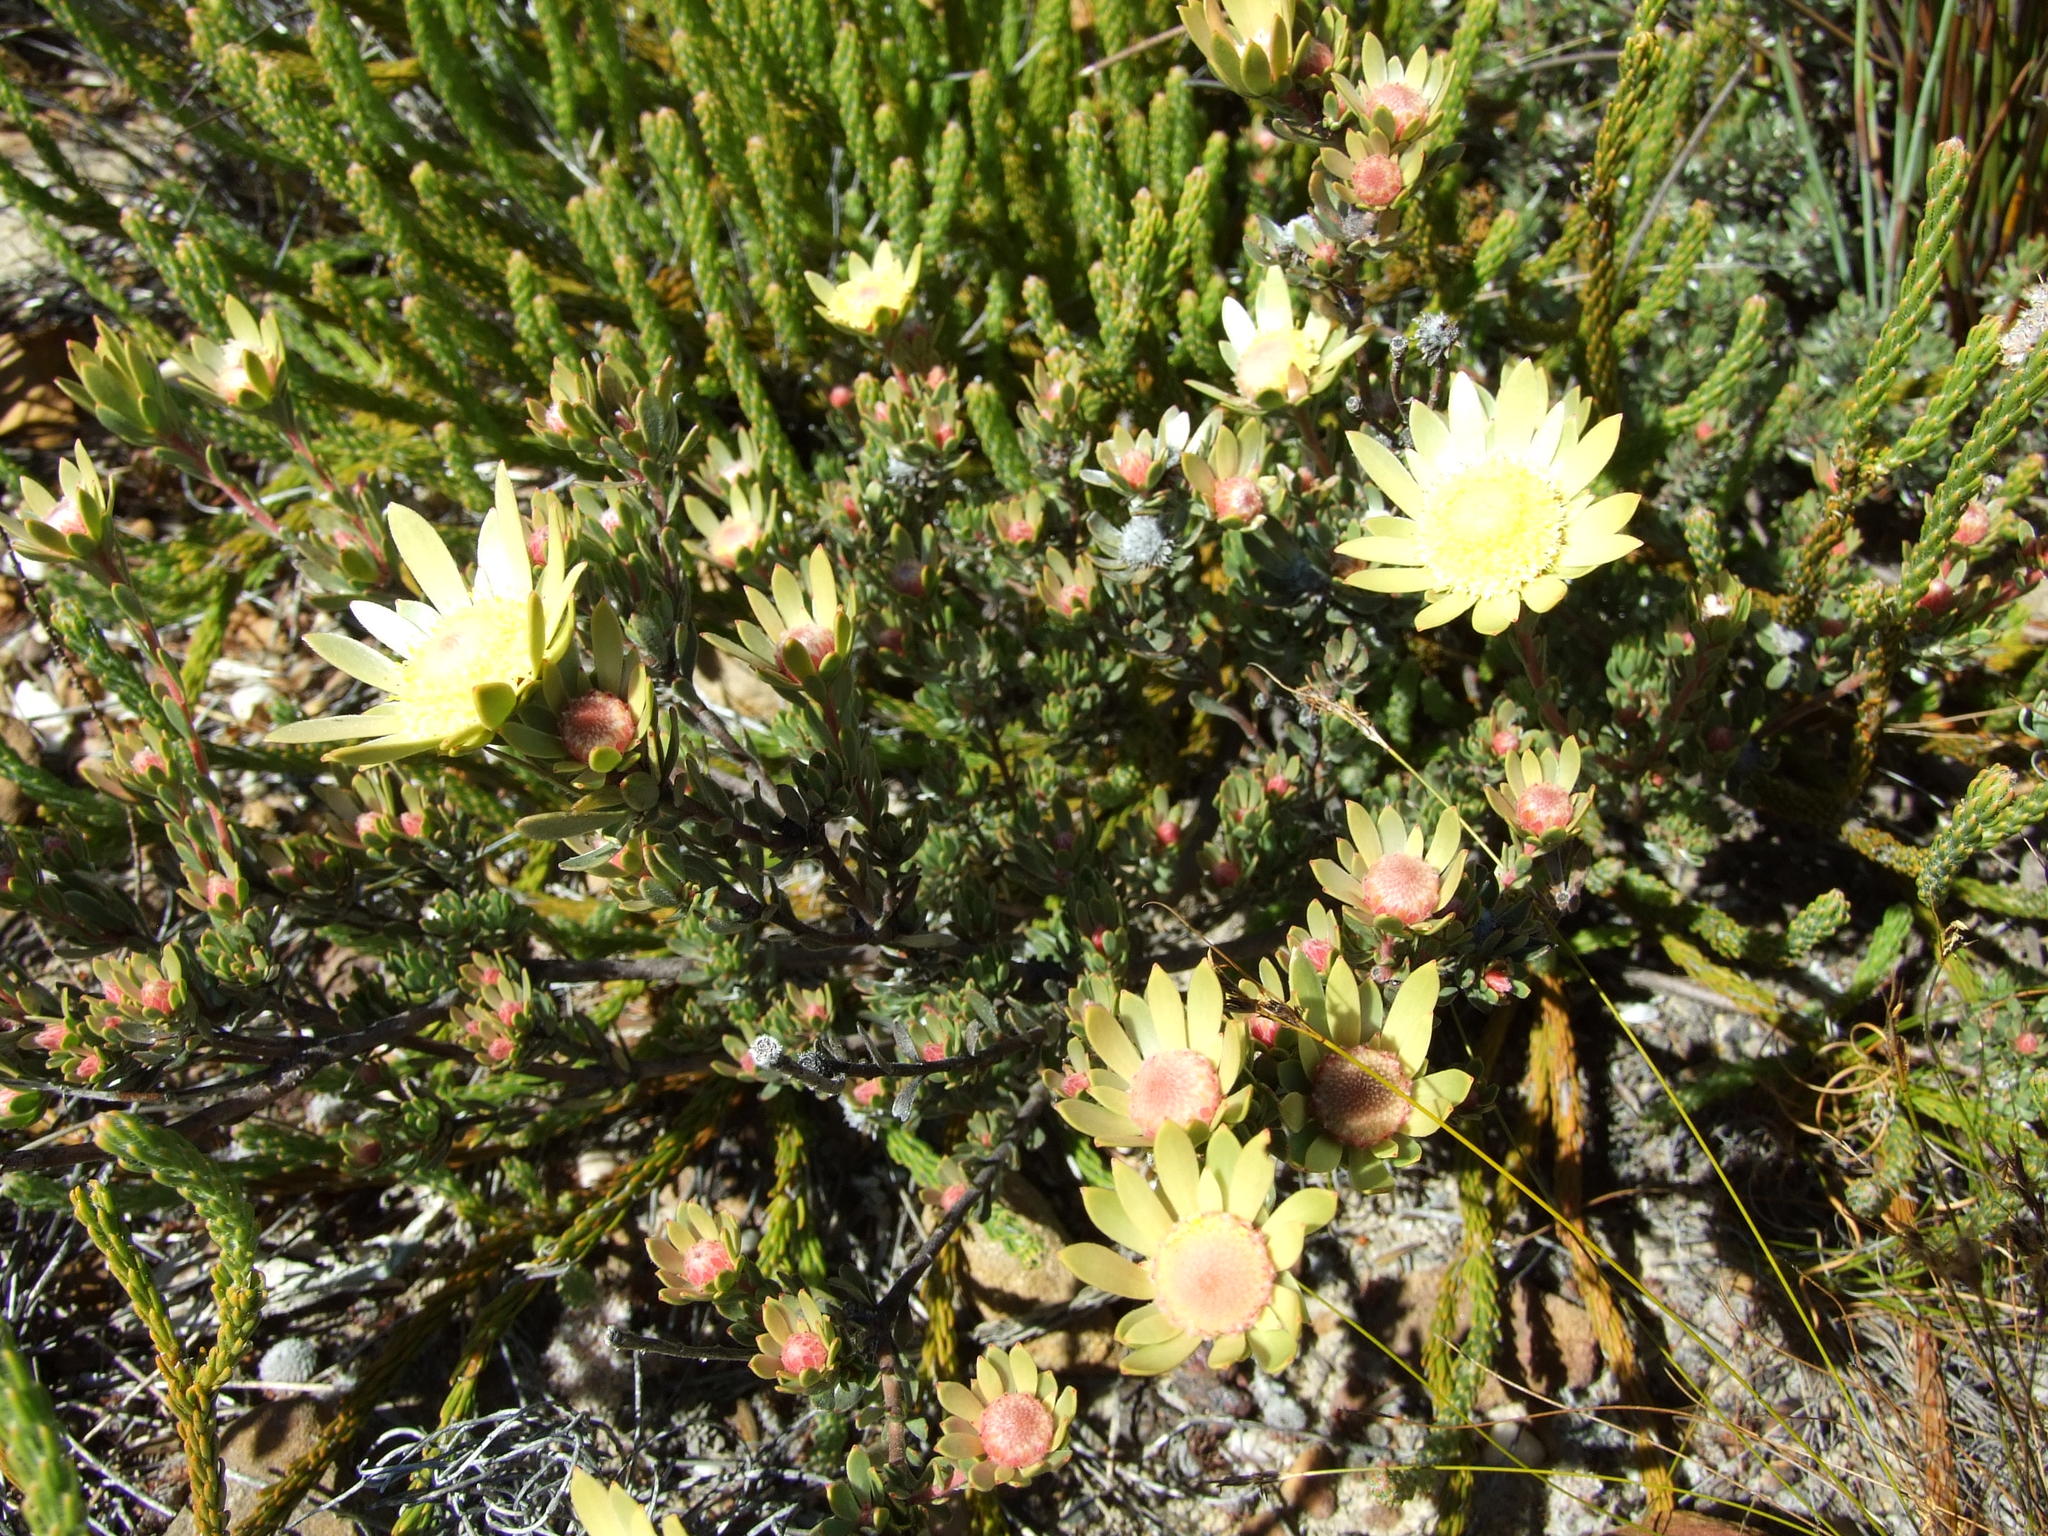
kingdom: Plantae
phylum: Tracheophyta
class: Magnoliopsida
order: Proteales
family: Proteaceae
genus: Leucadendron
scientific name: Leucadendron nitidum
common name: Bokkeveld conebush
